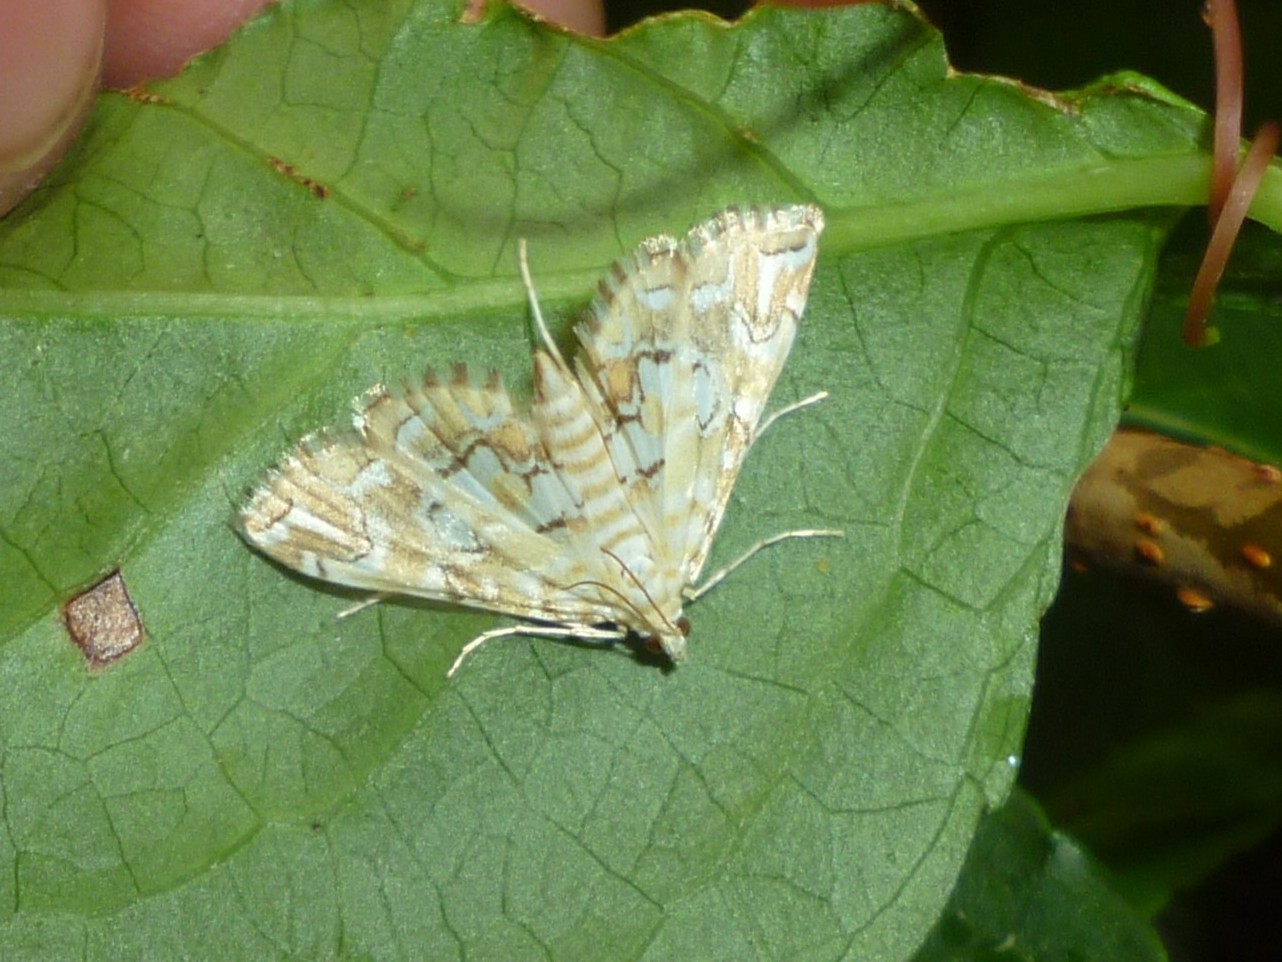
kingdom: Animalia
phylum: Arthropoda
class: Insecta
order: Lepidoptera
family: Crambidae
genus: Elophila
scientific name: Elophila icciusalis
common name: Pondside pyralid moth
